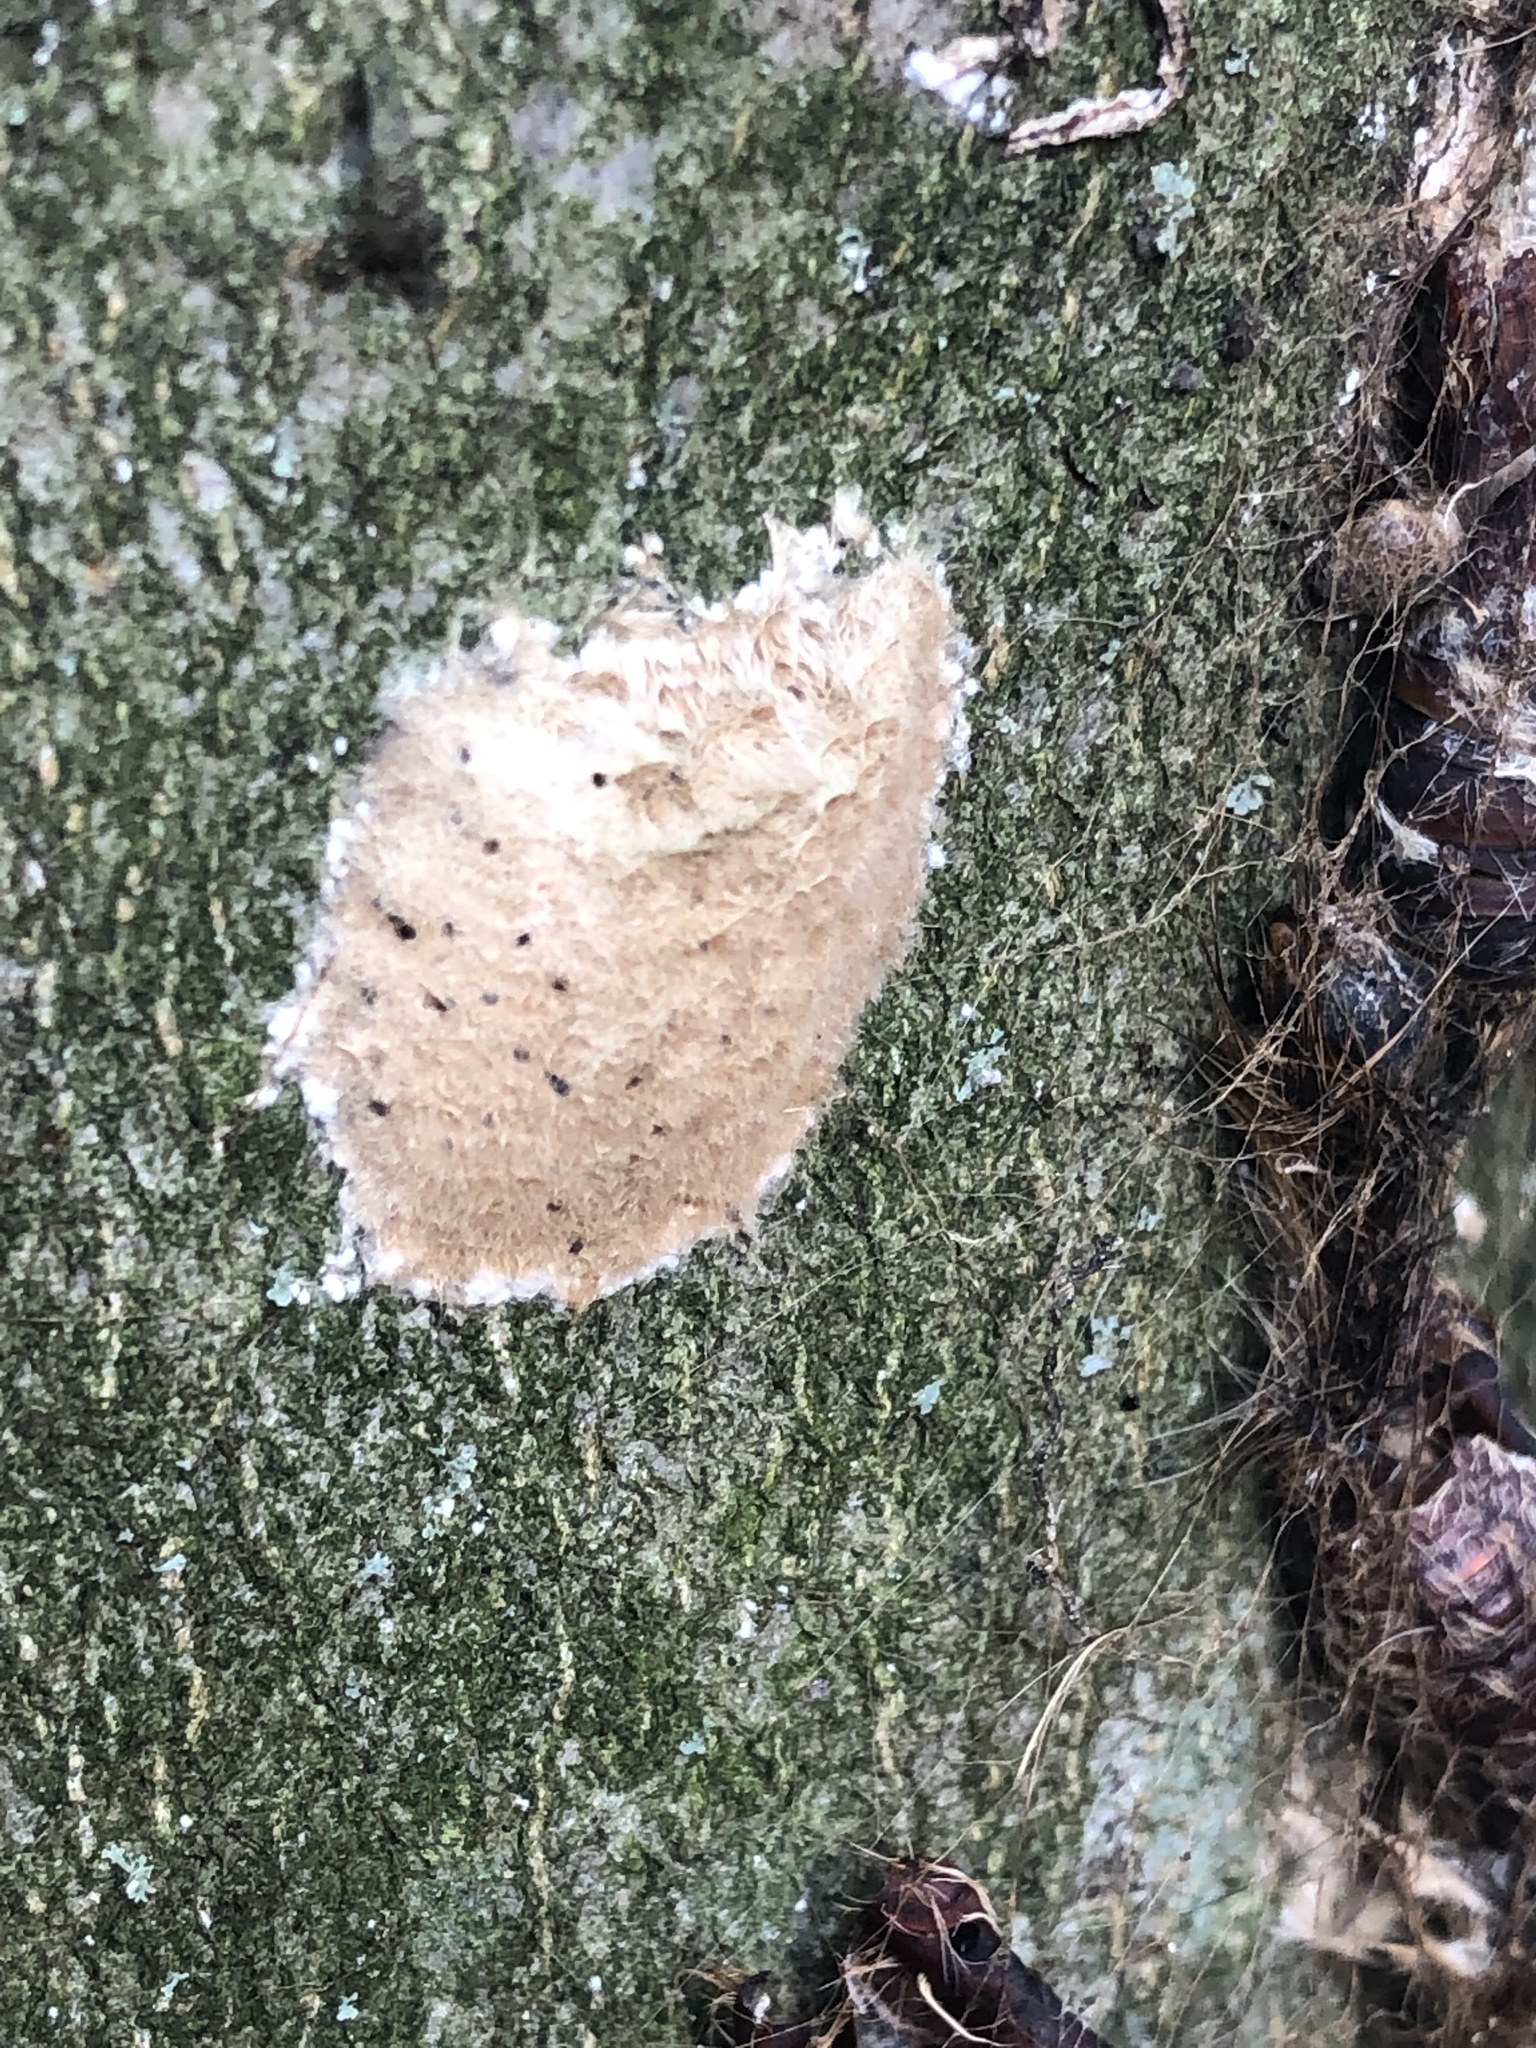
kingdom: Animalia
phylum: Arthropoda
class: Insecta
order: Lepidoptera
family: Erebidae
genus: Lymantria
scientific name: Lymantria dispar
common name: Gypsy moth
